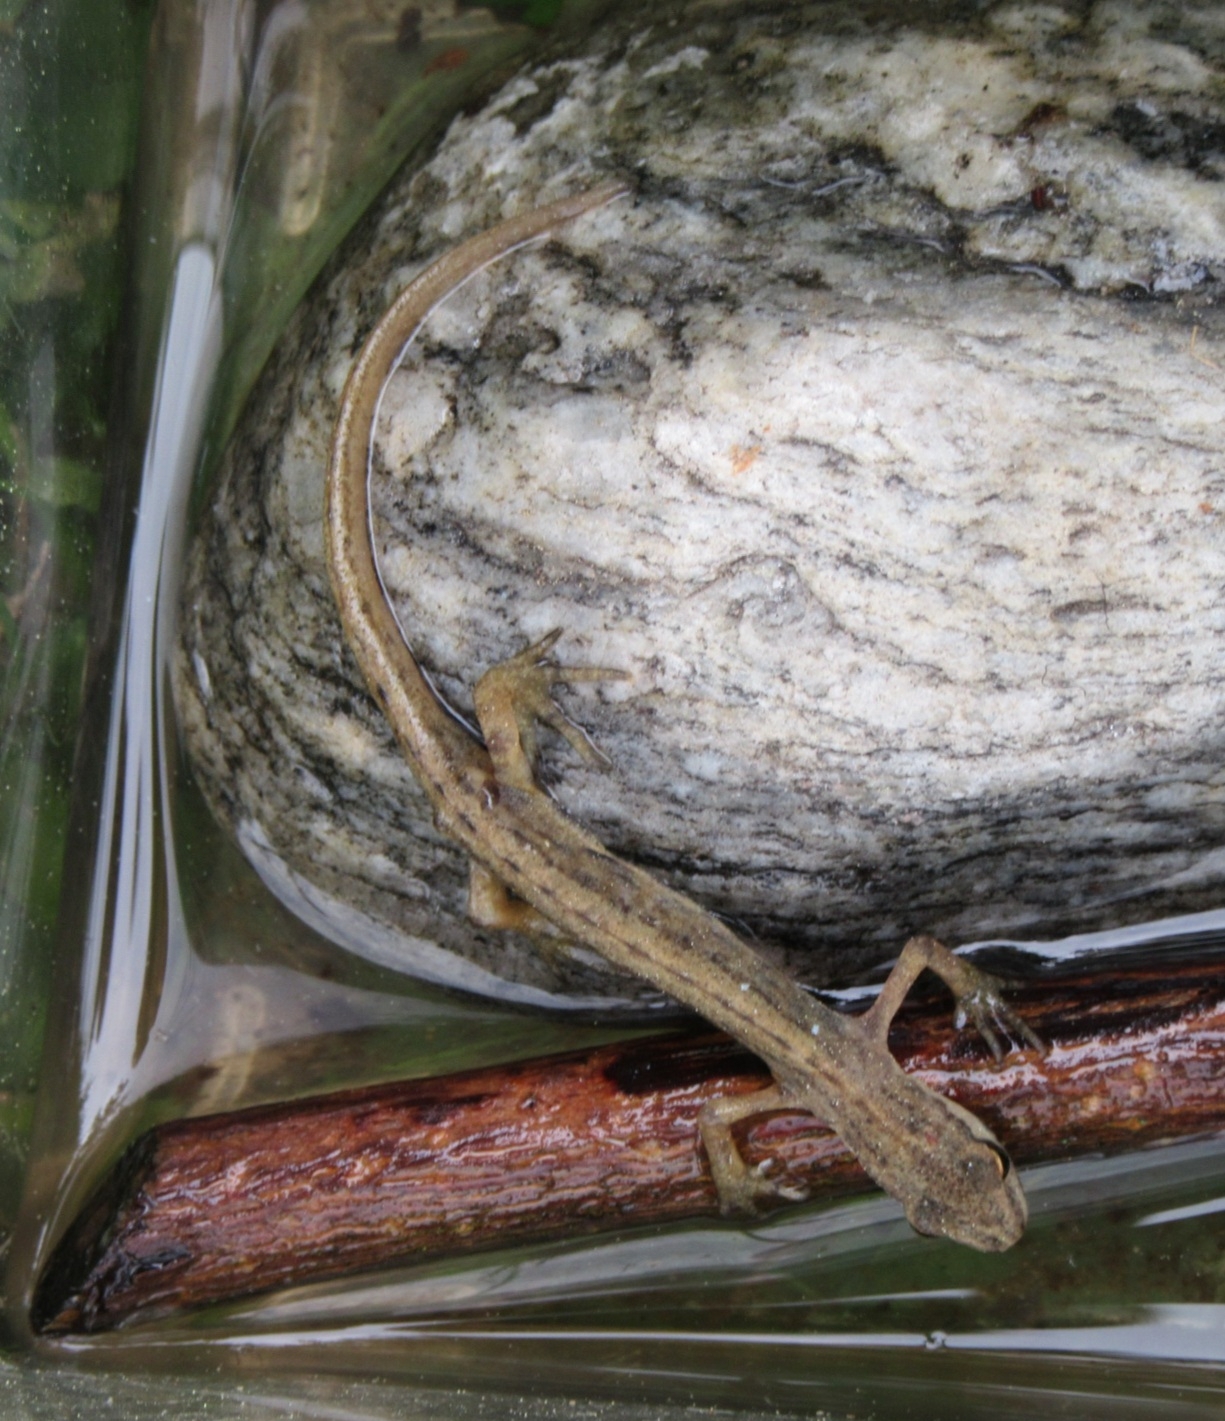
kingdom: Animalia
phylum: Chordata
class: Amphibia
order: Caudata
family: Salamandridae
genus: Lissotriton
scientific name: Lissotriton vulgaris
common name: Smooth newt
